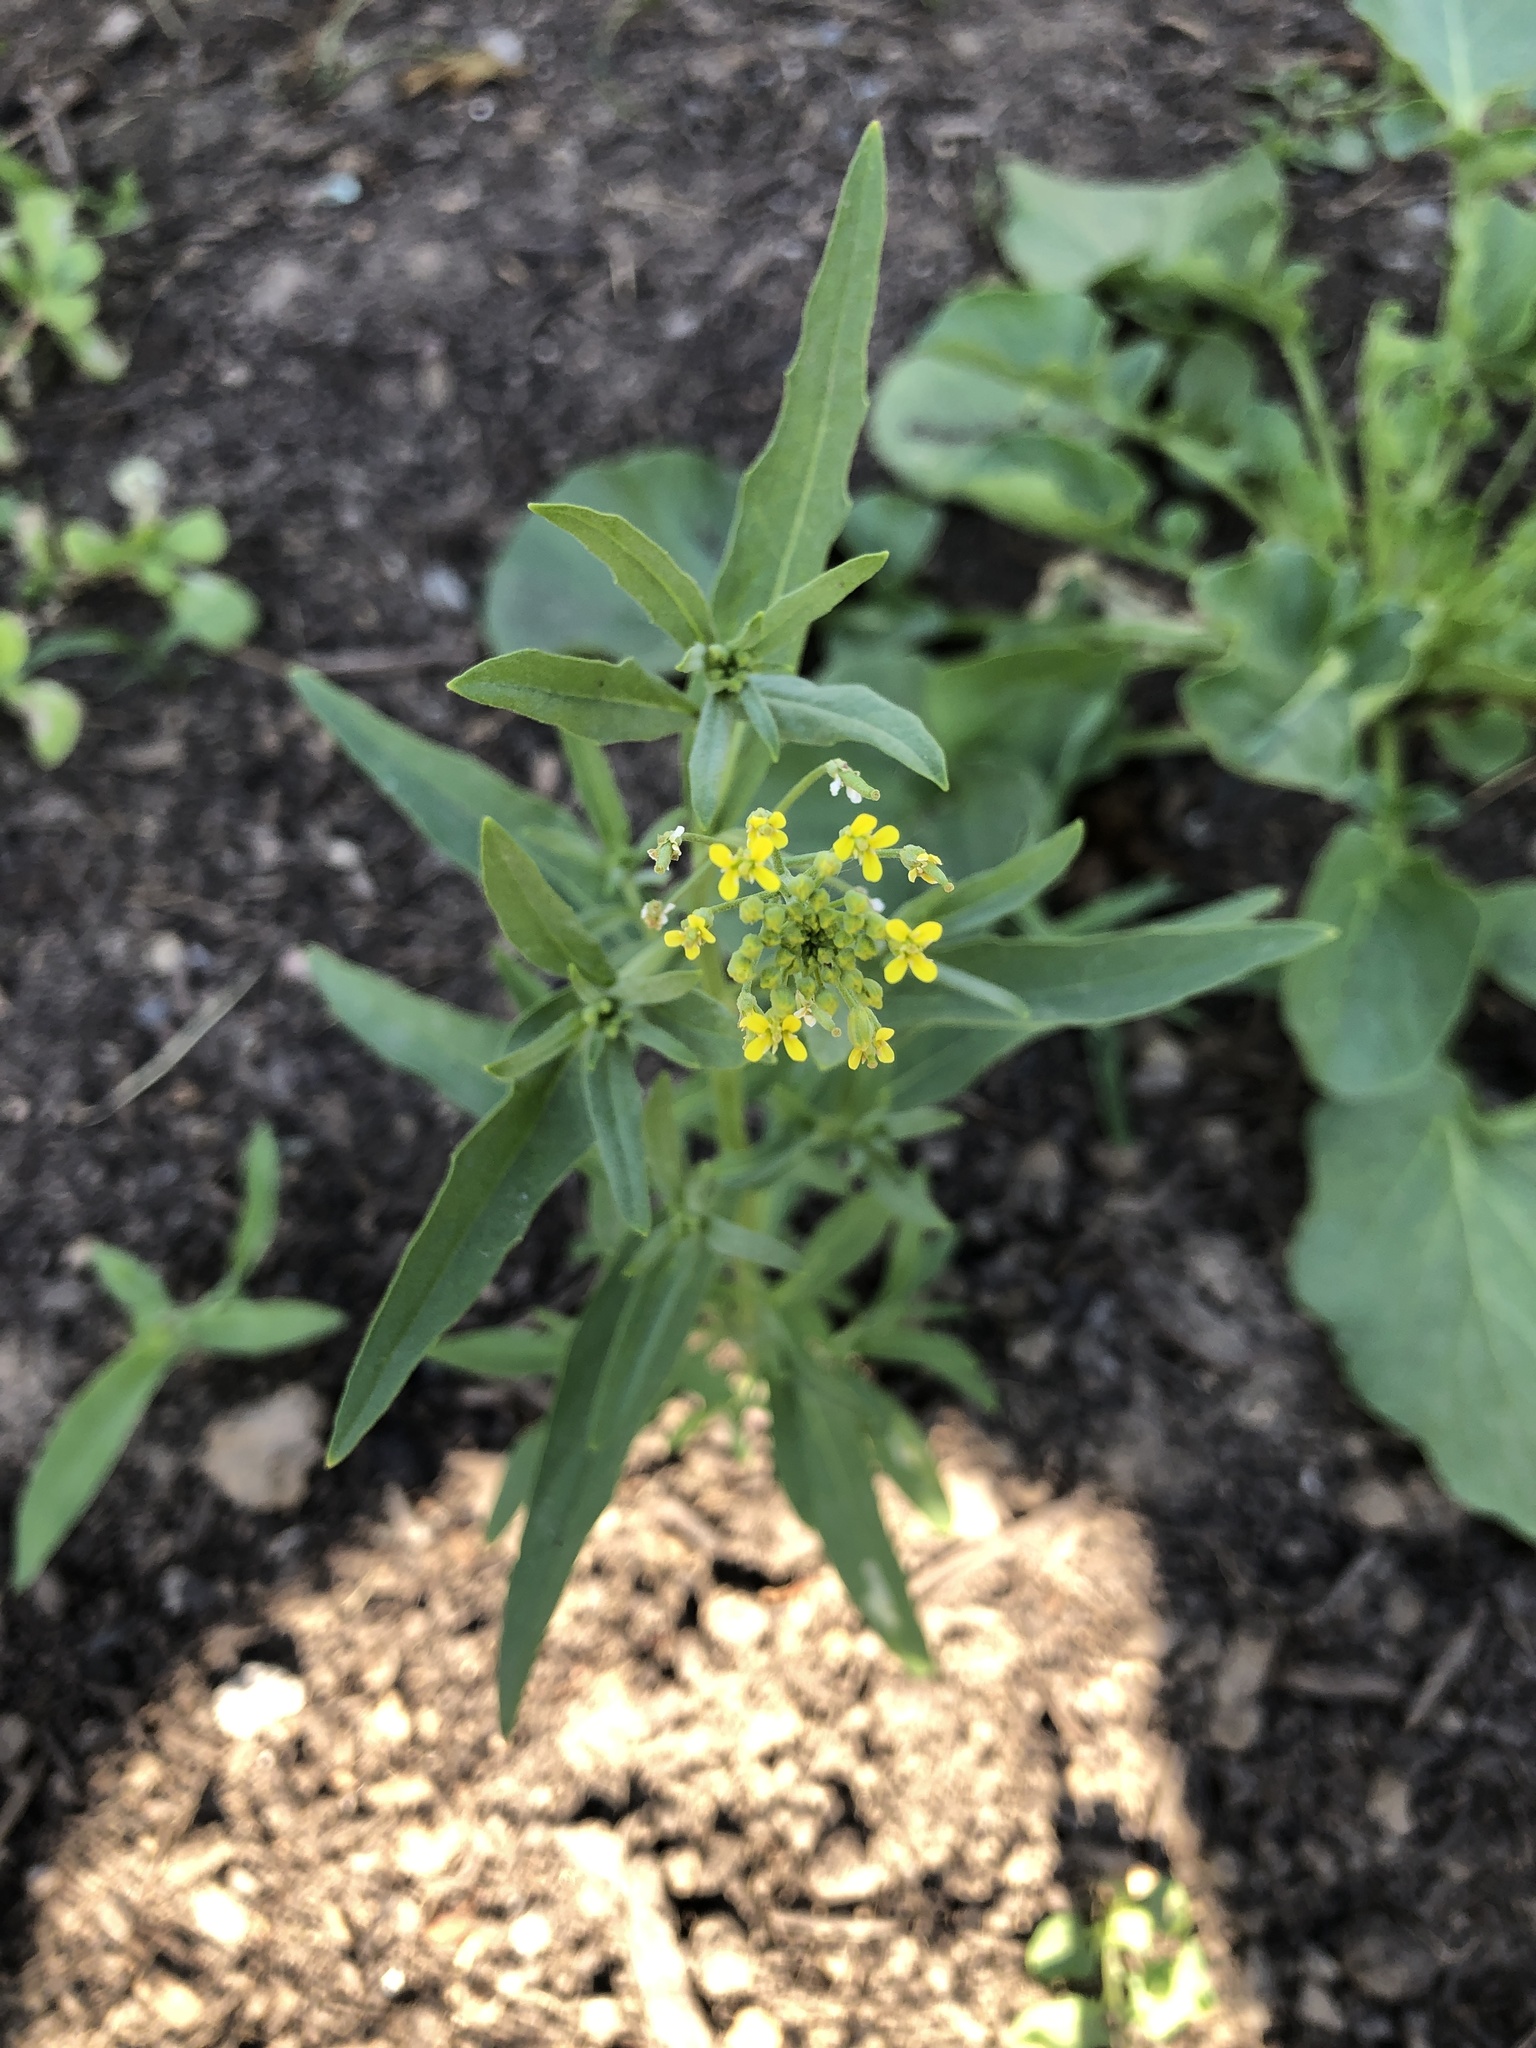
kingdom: Plantae
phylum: Tracheophyta
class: Magnoliopsida
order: Brassicales
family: Brassicaceae
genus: Erysimum
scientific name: Erysimum cheiranthoides
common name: Treacle mustard
